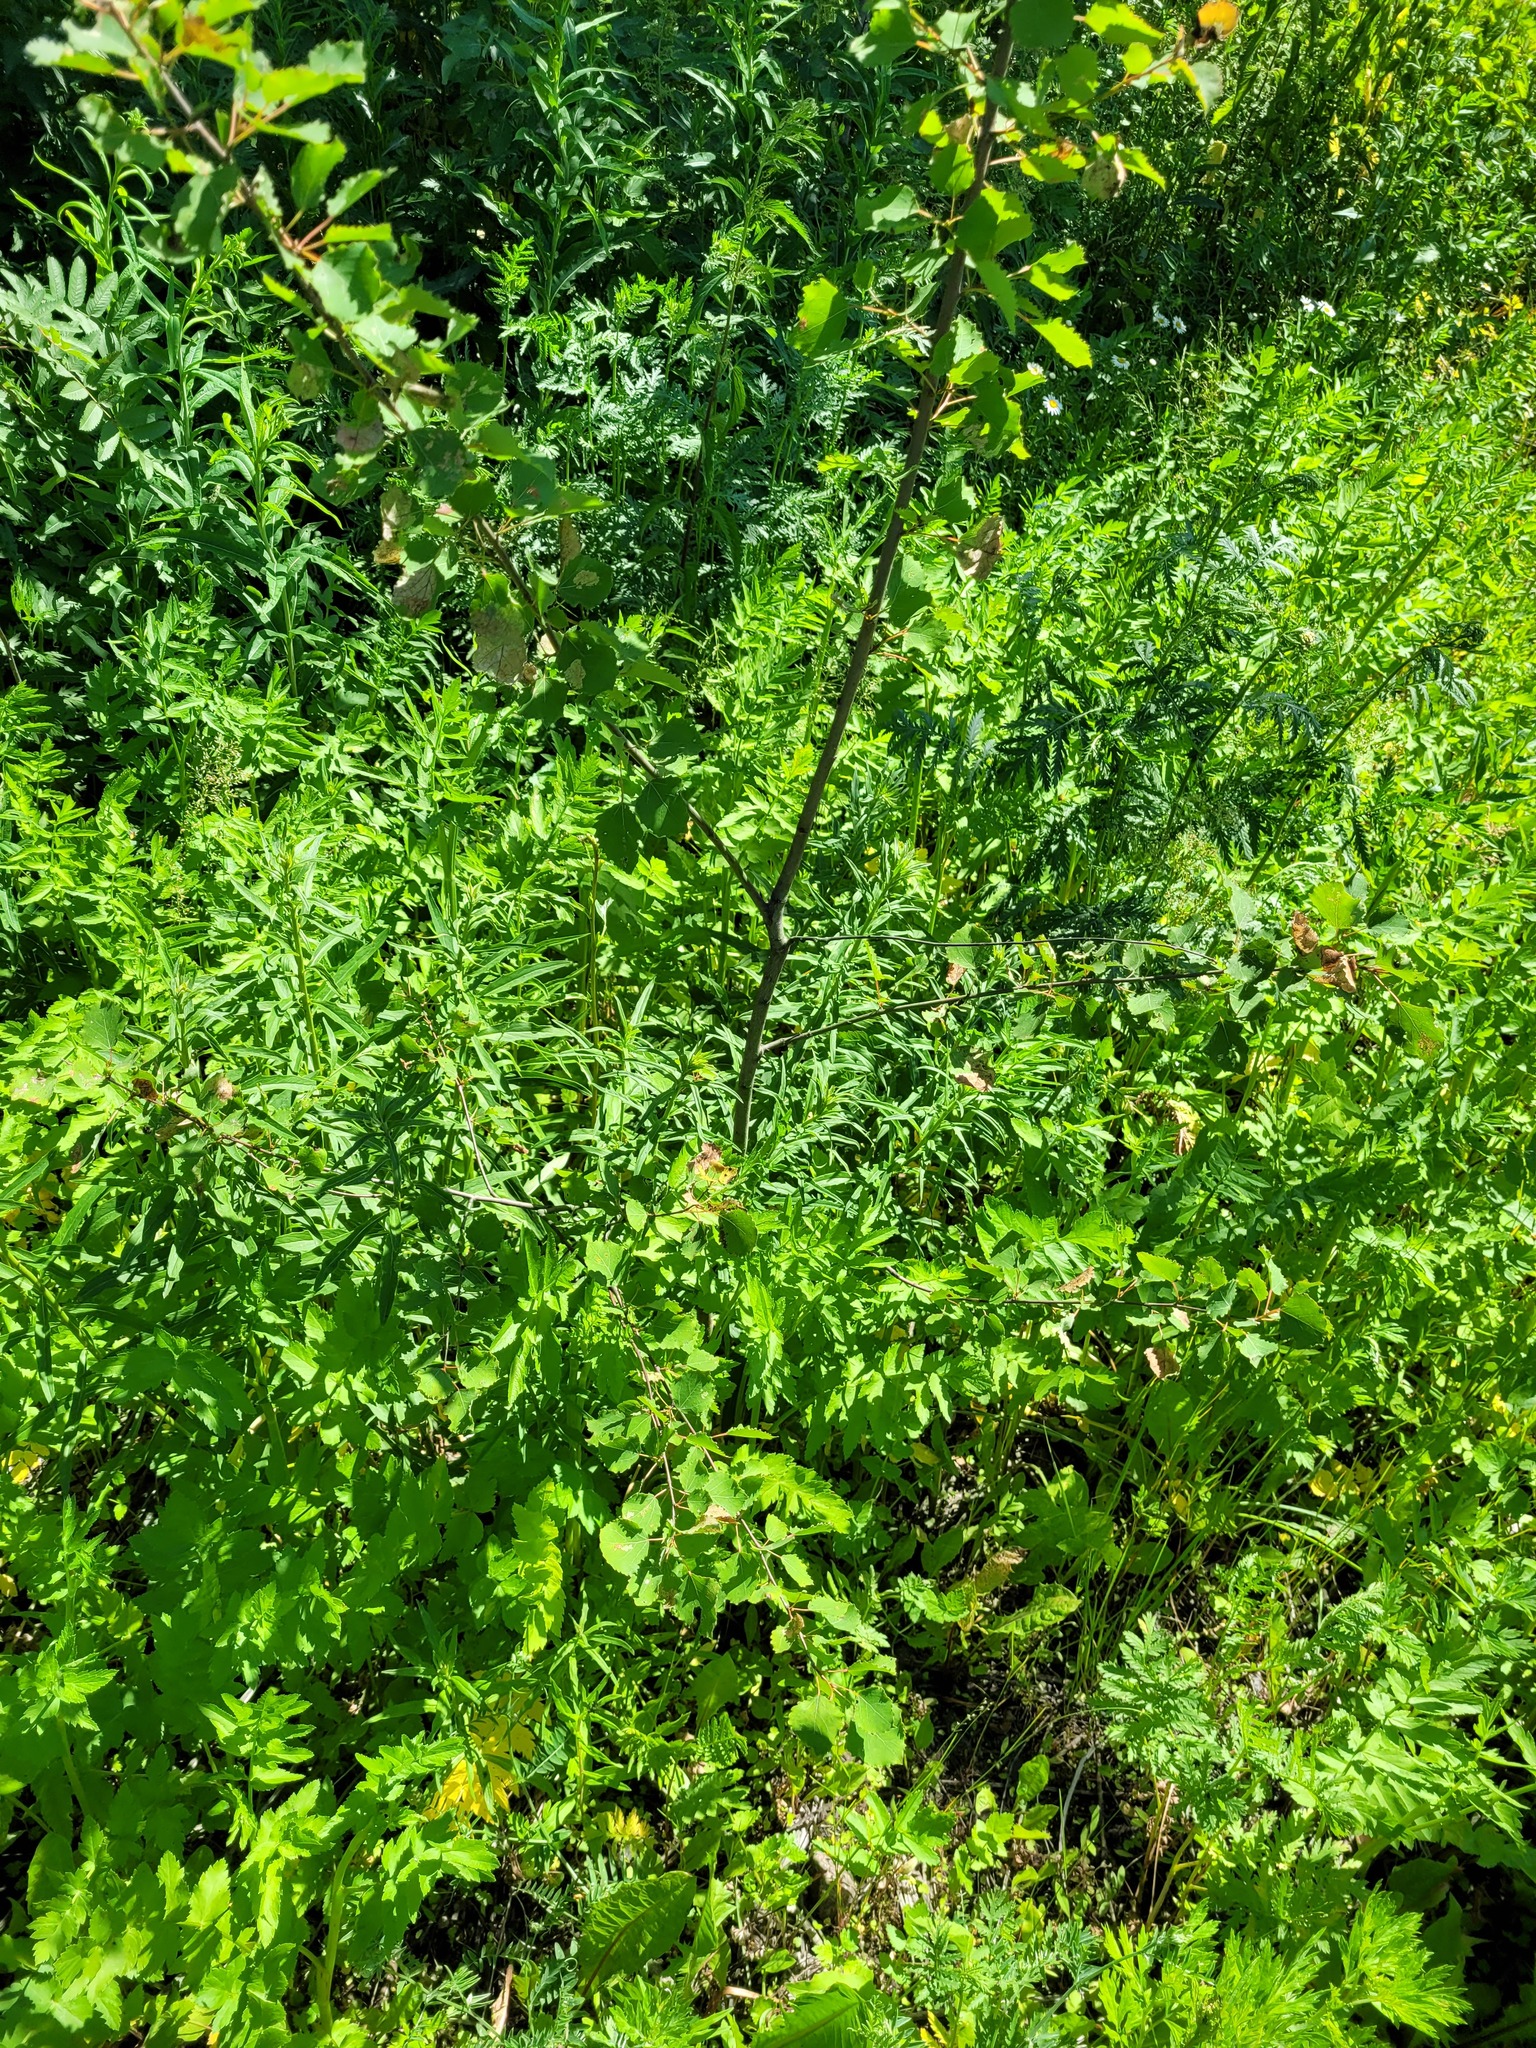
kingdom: Plantae
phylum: Tracheophyta
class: Magnoliopsida
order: Malpighiales
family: Salicaceae
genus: Populus
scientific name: Populus tremula
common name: European aspen
